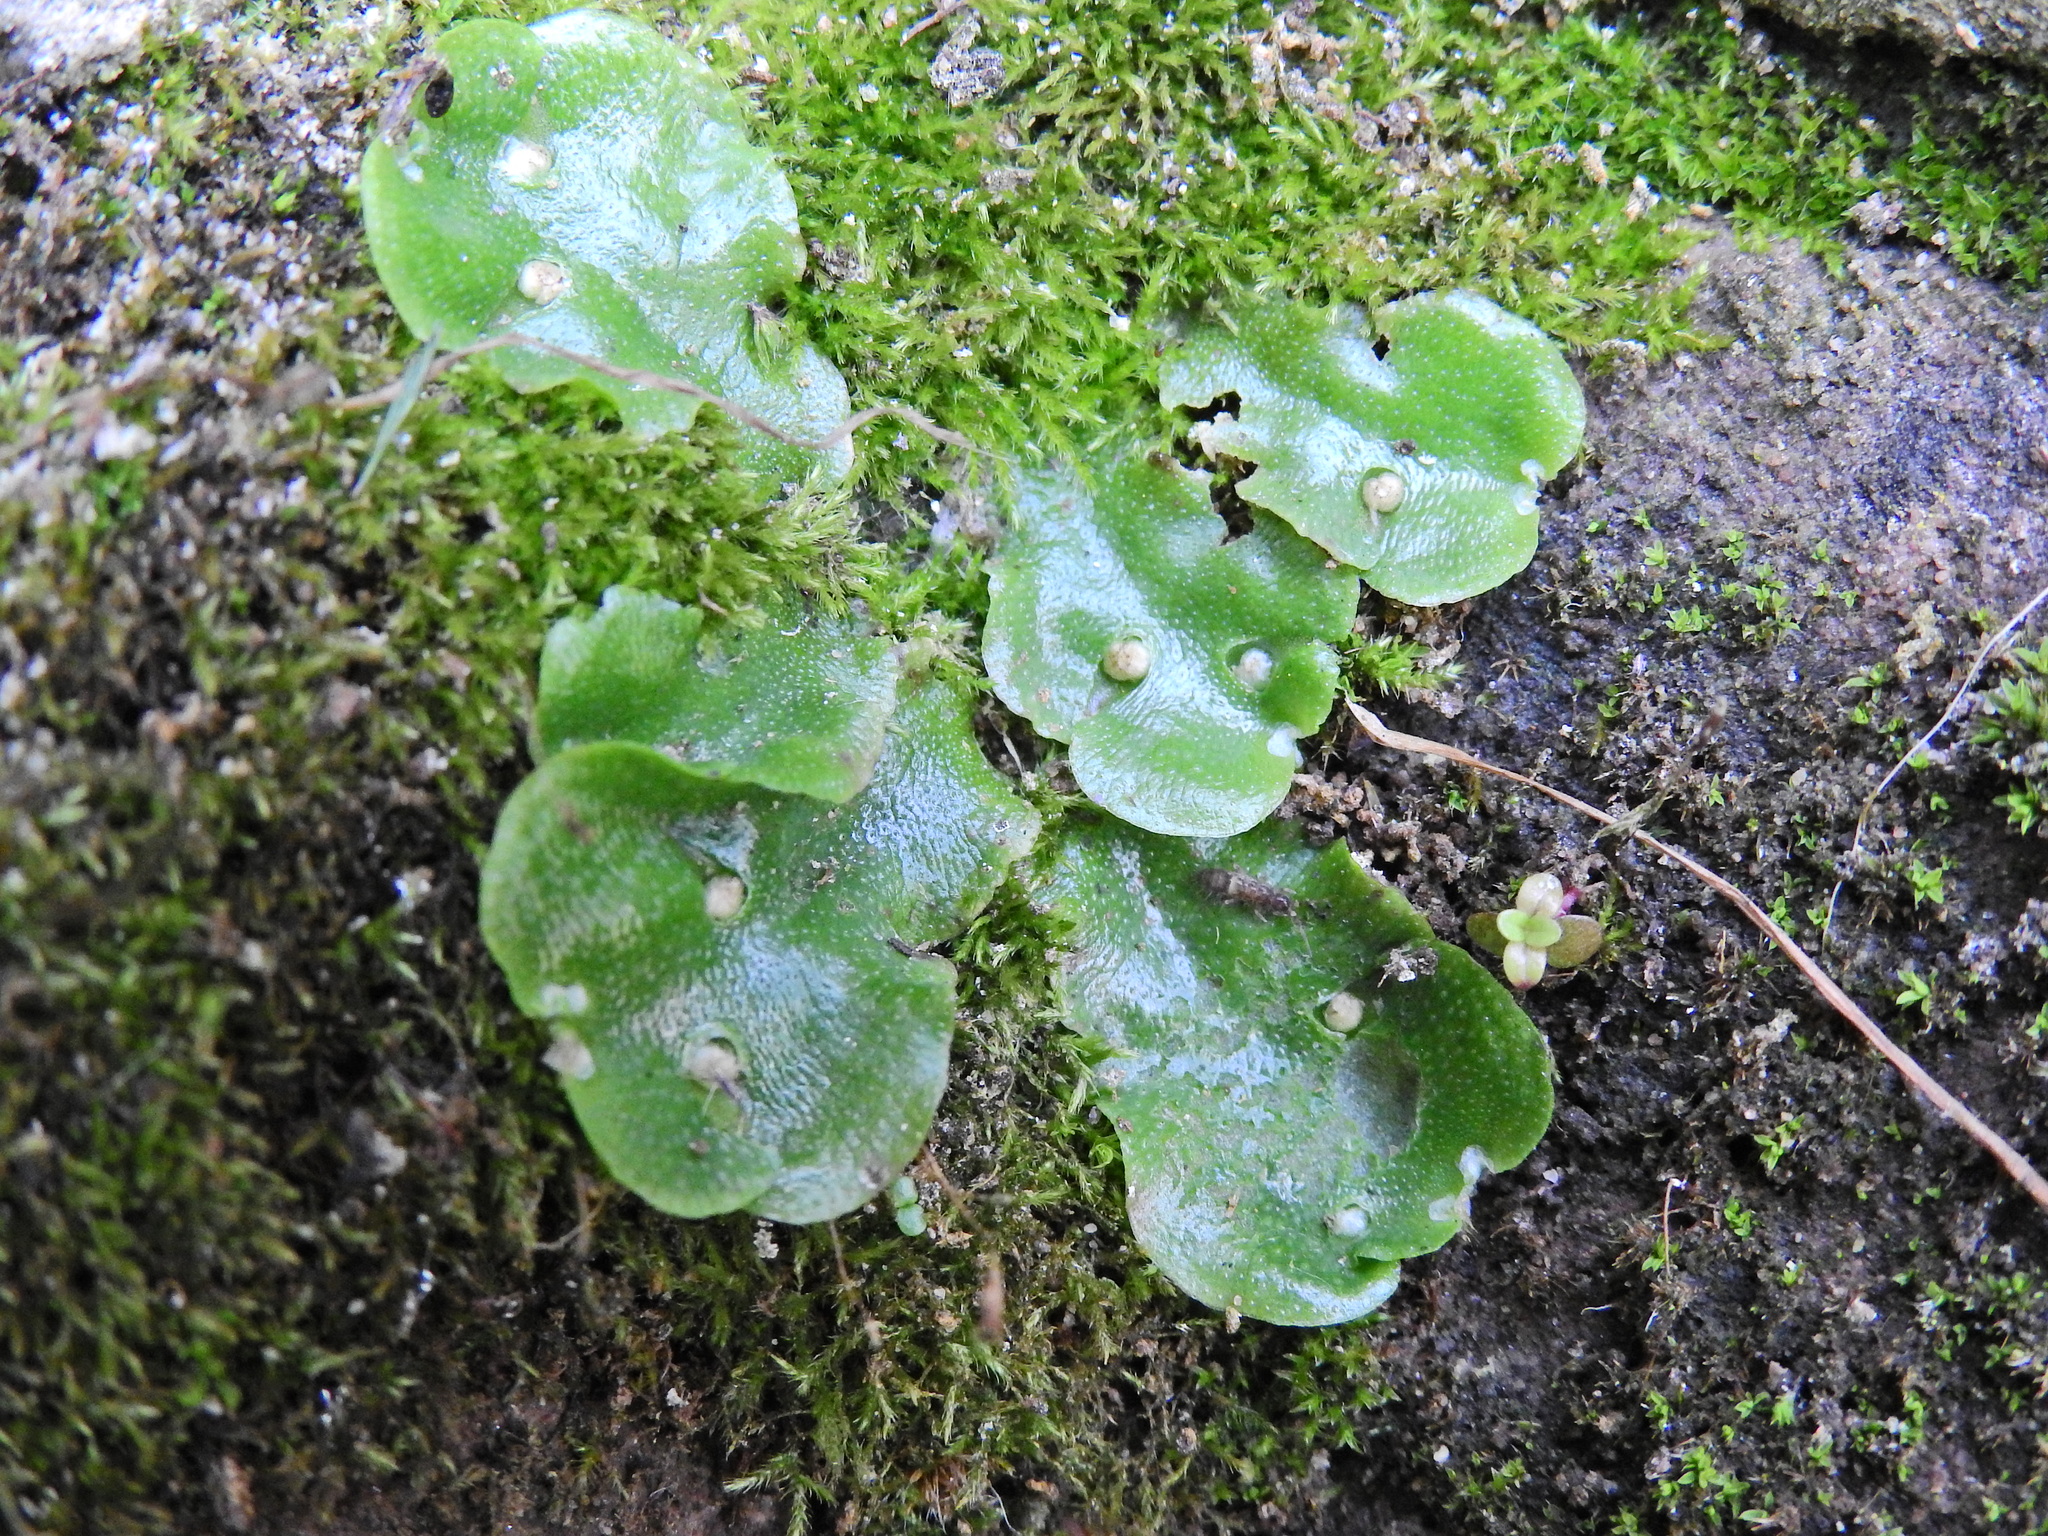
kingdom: Plantae
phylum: Marchantiophyta
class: Marchantiopsida
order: Lunulariales
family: Lunulariaceae
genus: Lunularia
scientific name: Lunularia cruciata
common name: Crescent-cup liverwort
